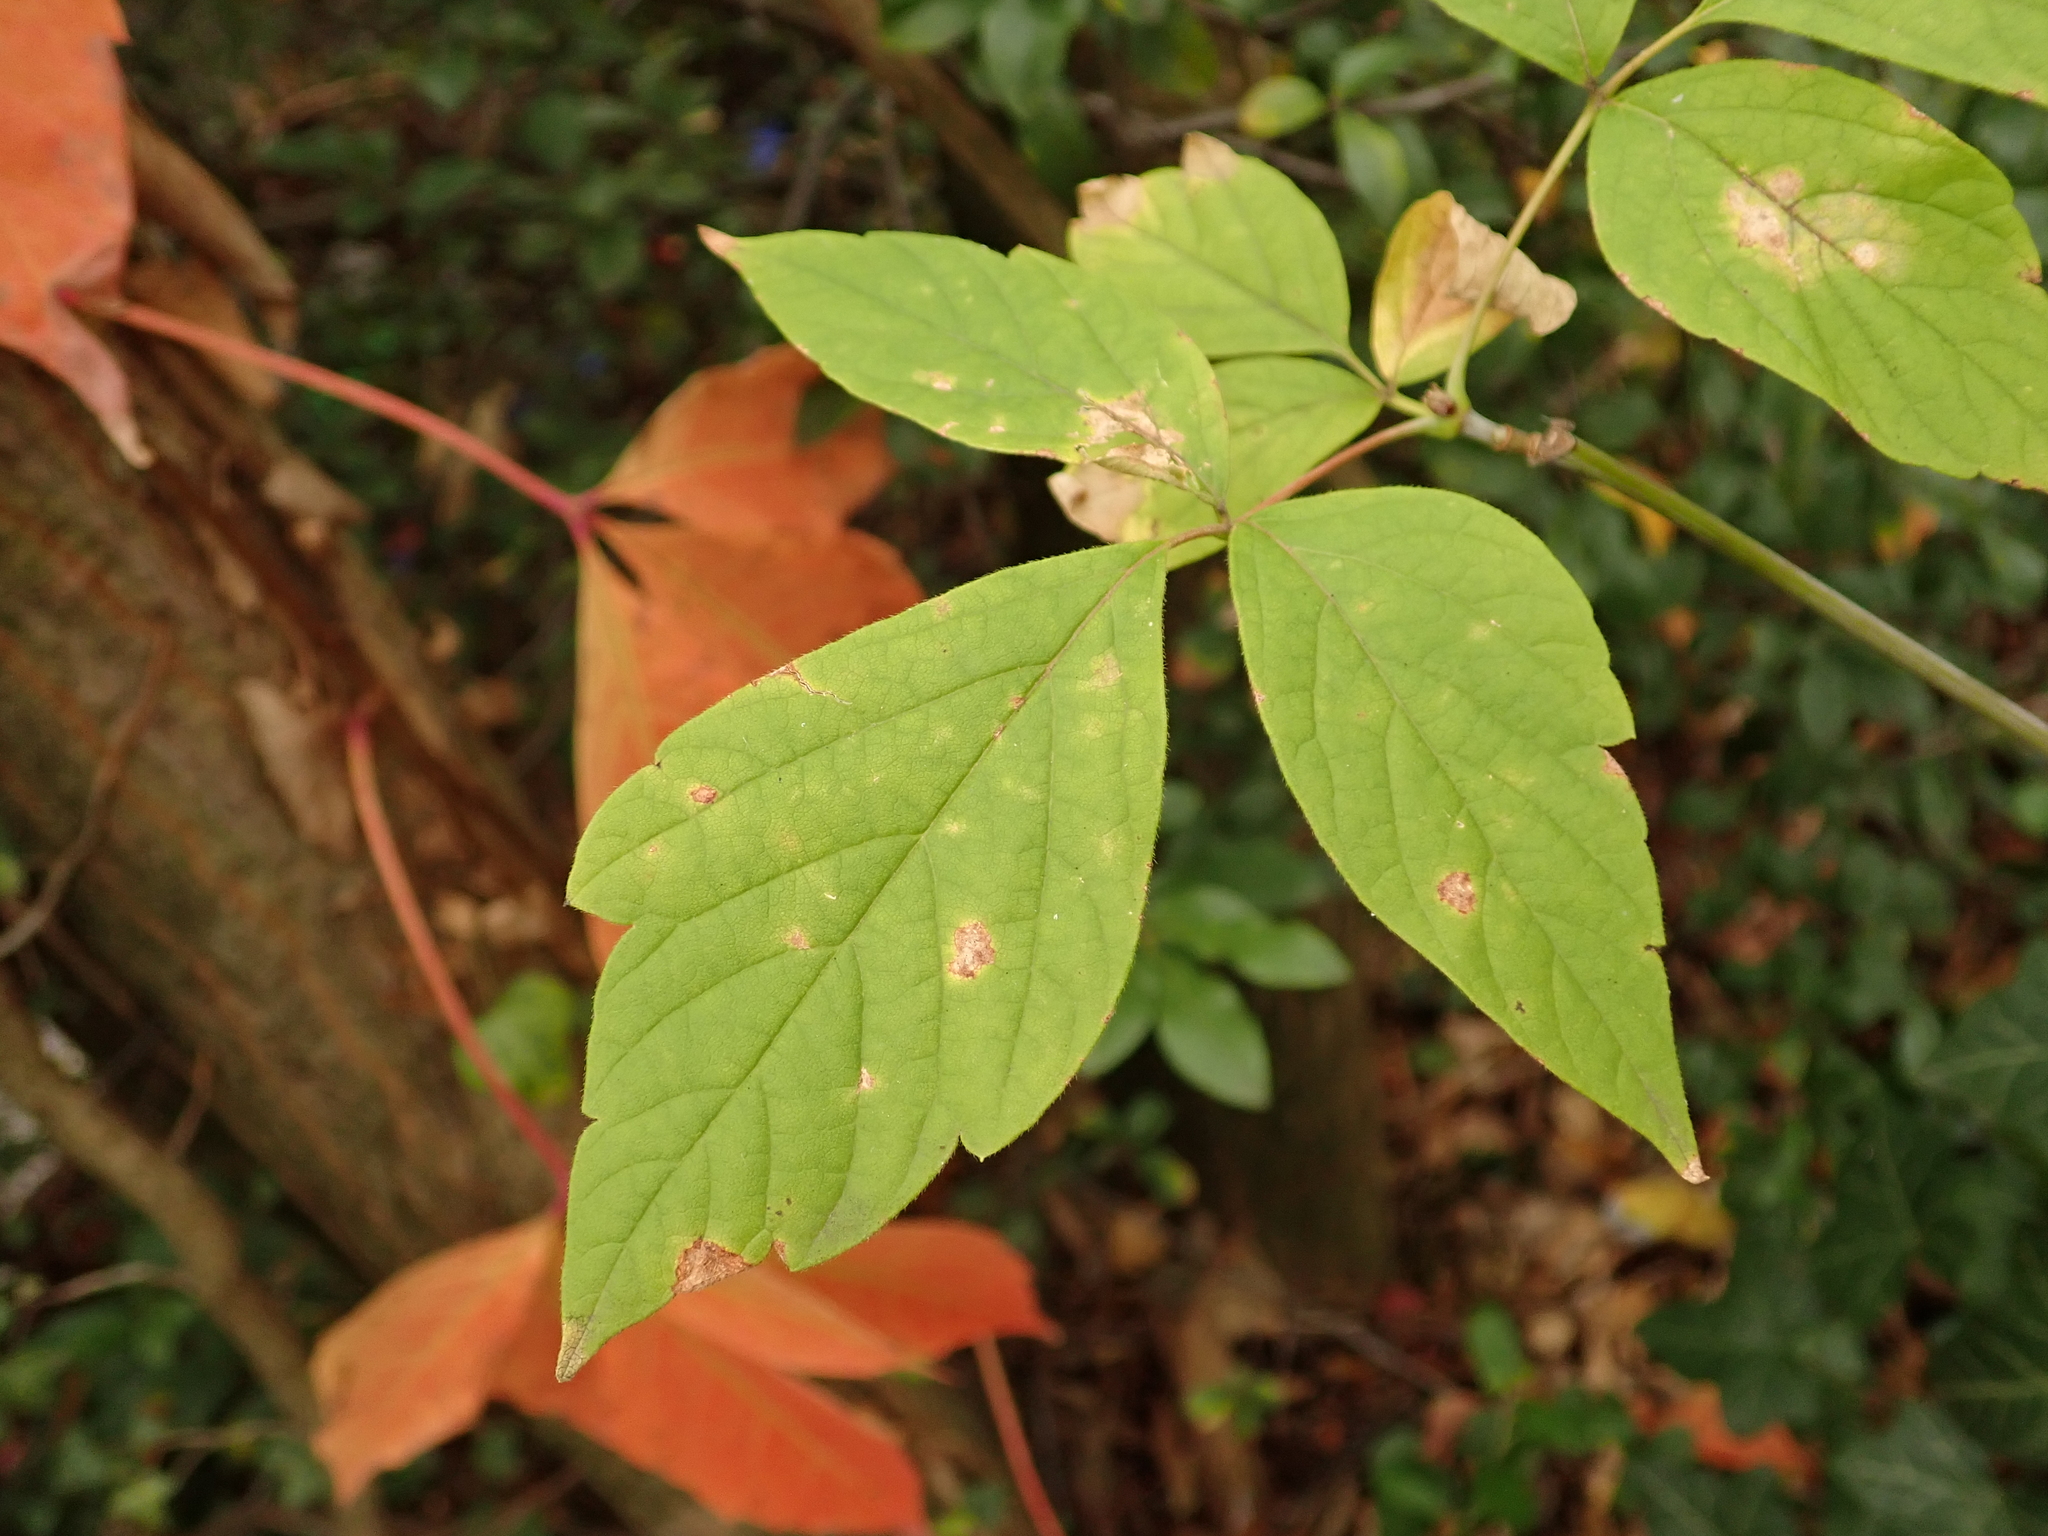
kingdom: Plantae
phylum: Tracheophyta
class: Magnoliopsida
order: Sapindales
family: Sapindaceae
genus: Acer
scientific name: Acer negundo
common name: Ashleaf maple
